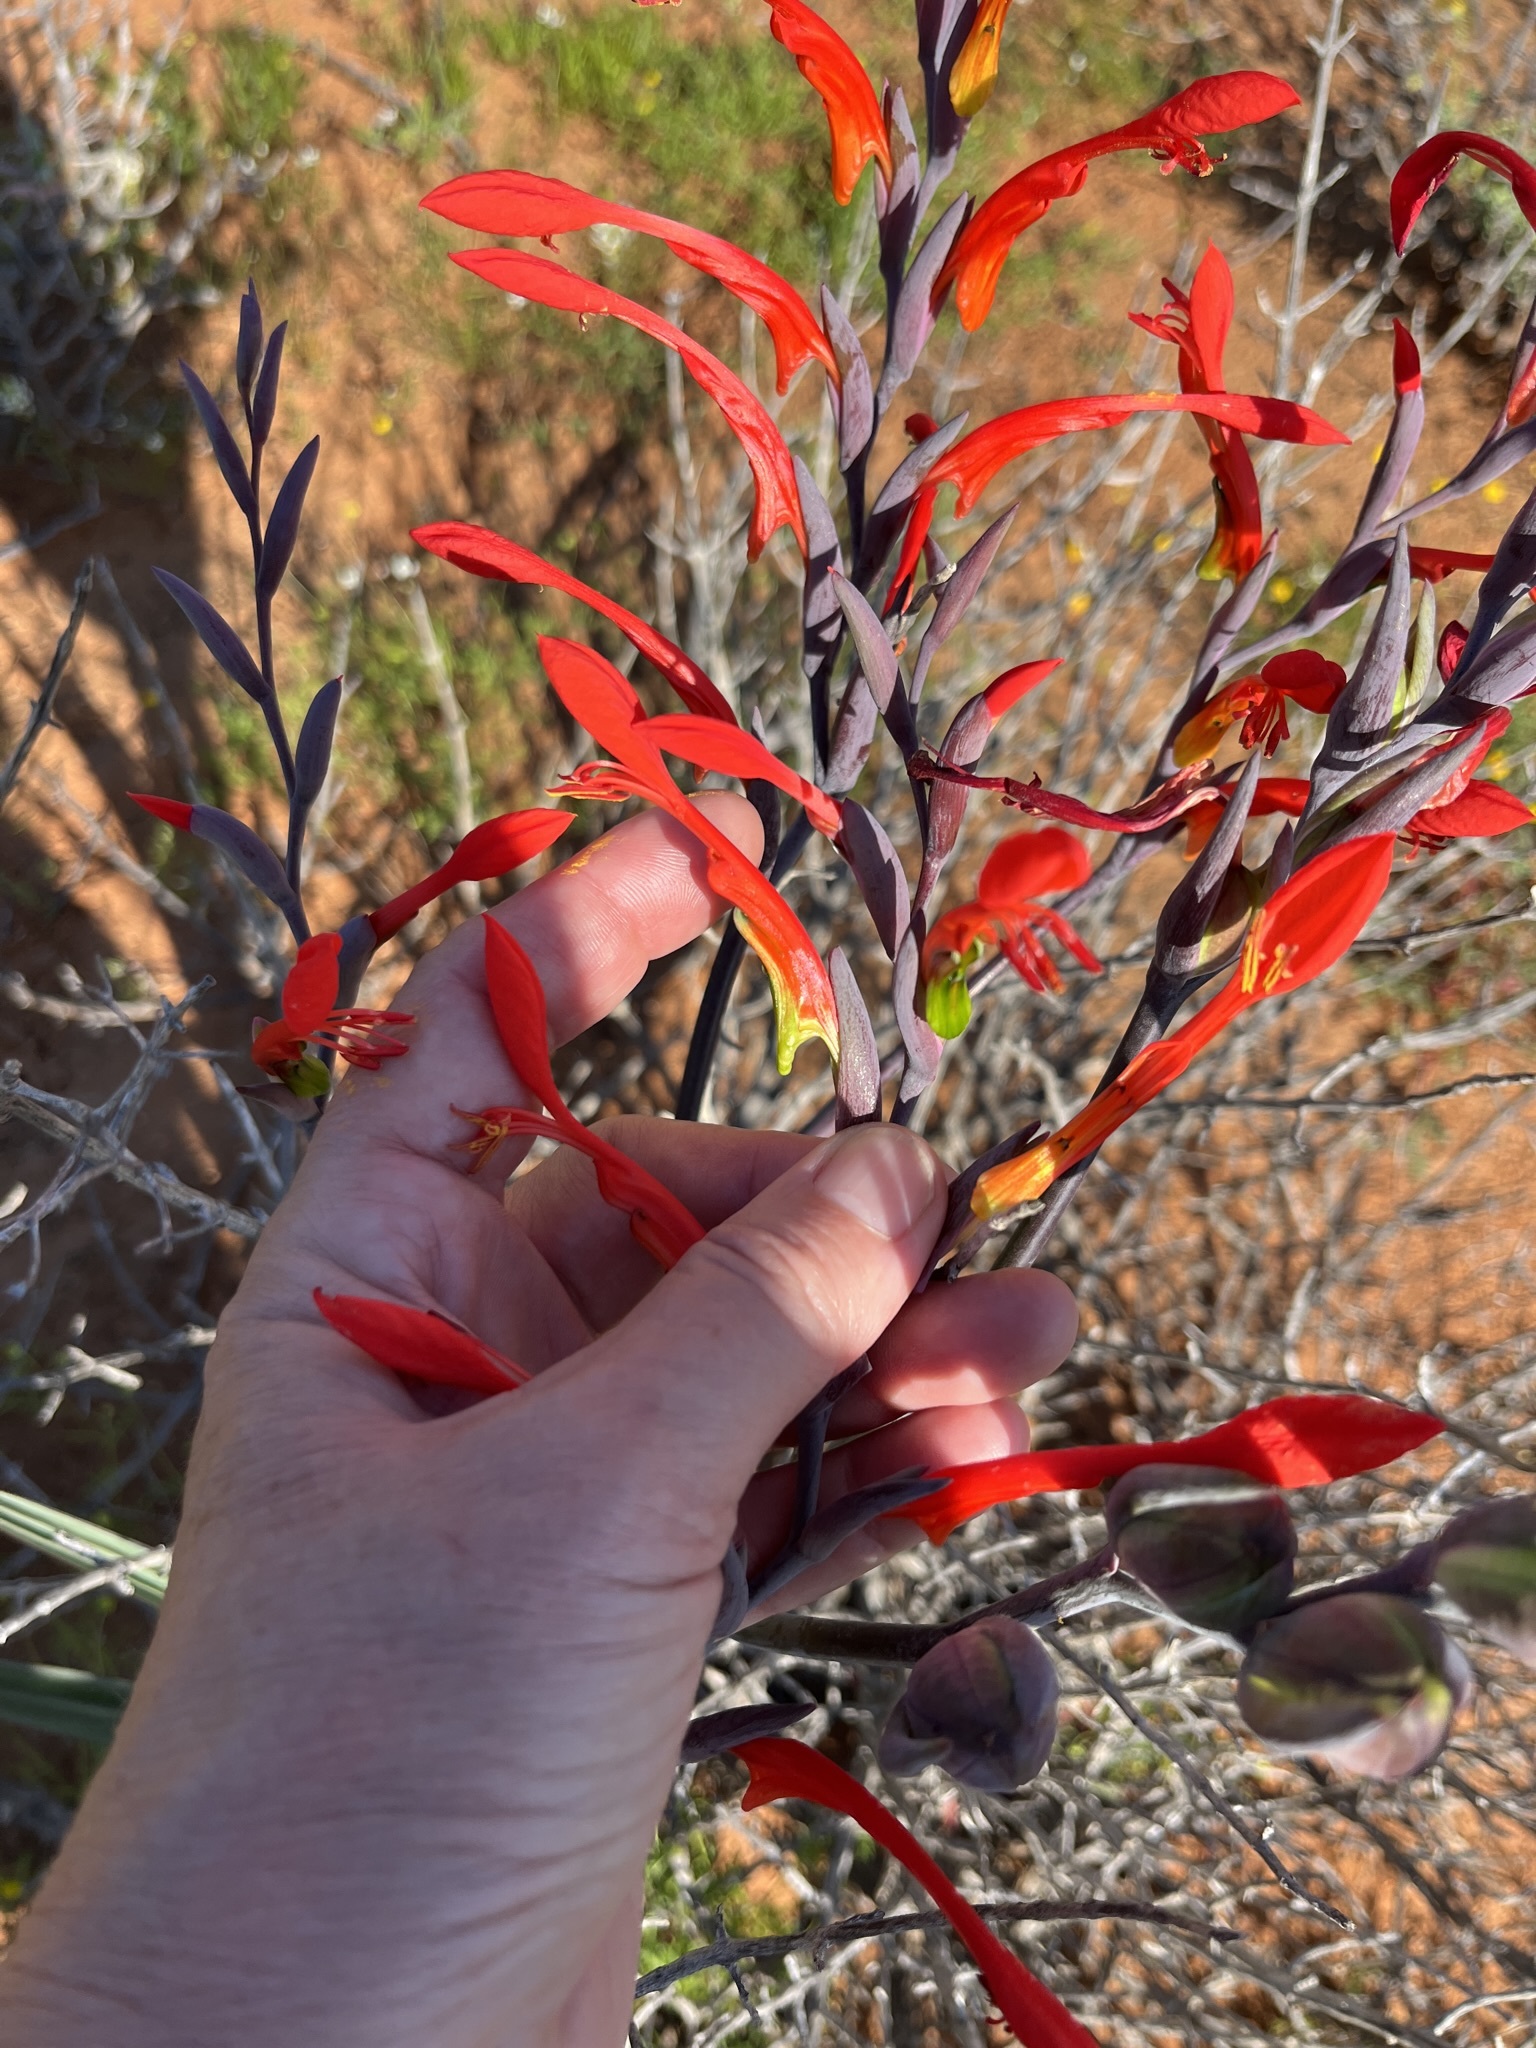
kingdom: Plantae
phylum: Tracheophyta
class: Liliopsida
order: Asparagales
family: Iridaceae
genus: Gladiolus
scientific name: Gladiolus saccatus
